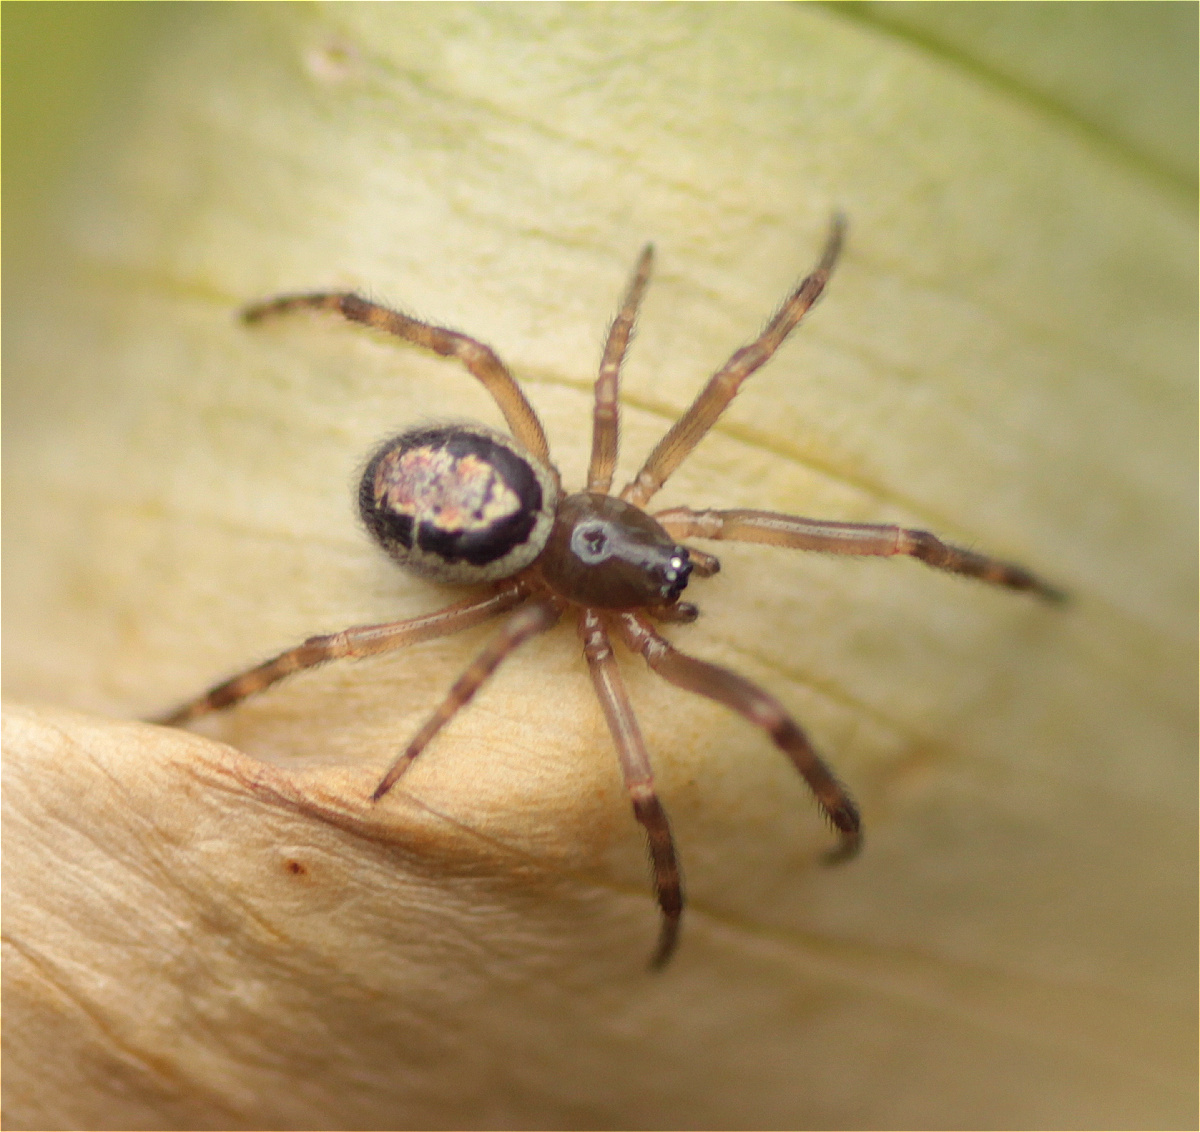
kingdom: Animalia
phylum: Arthropoda
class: Arachnida
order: Araneae
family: Theridiidae
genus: Steatoda
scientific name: Steatoda nobilis
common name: Cobweb weaver
